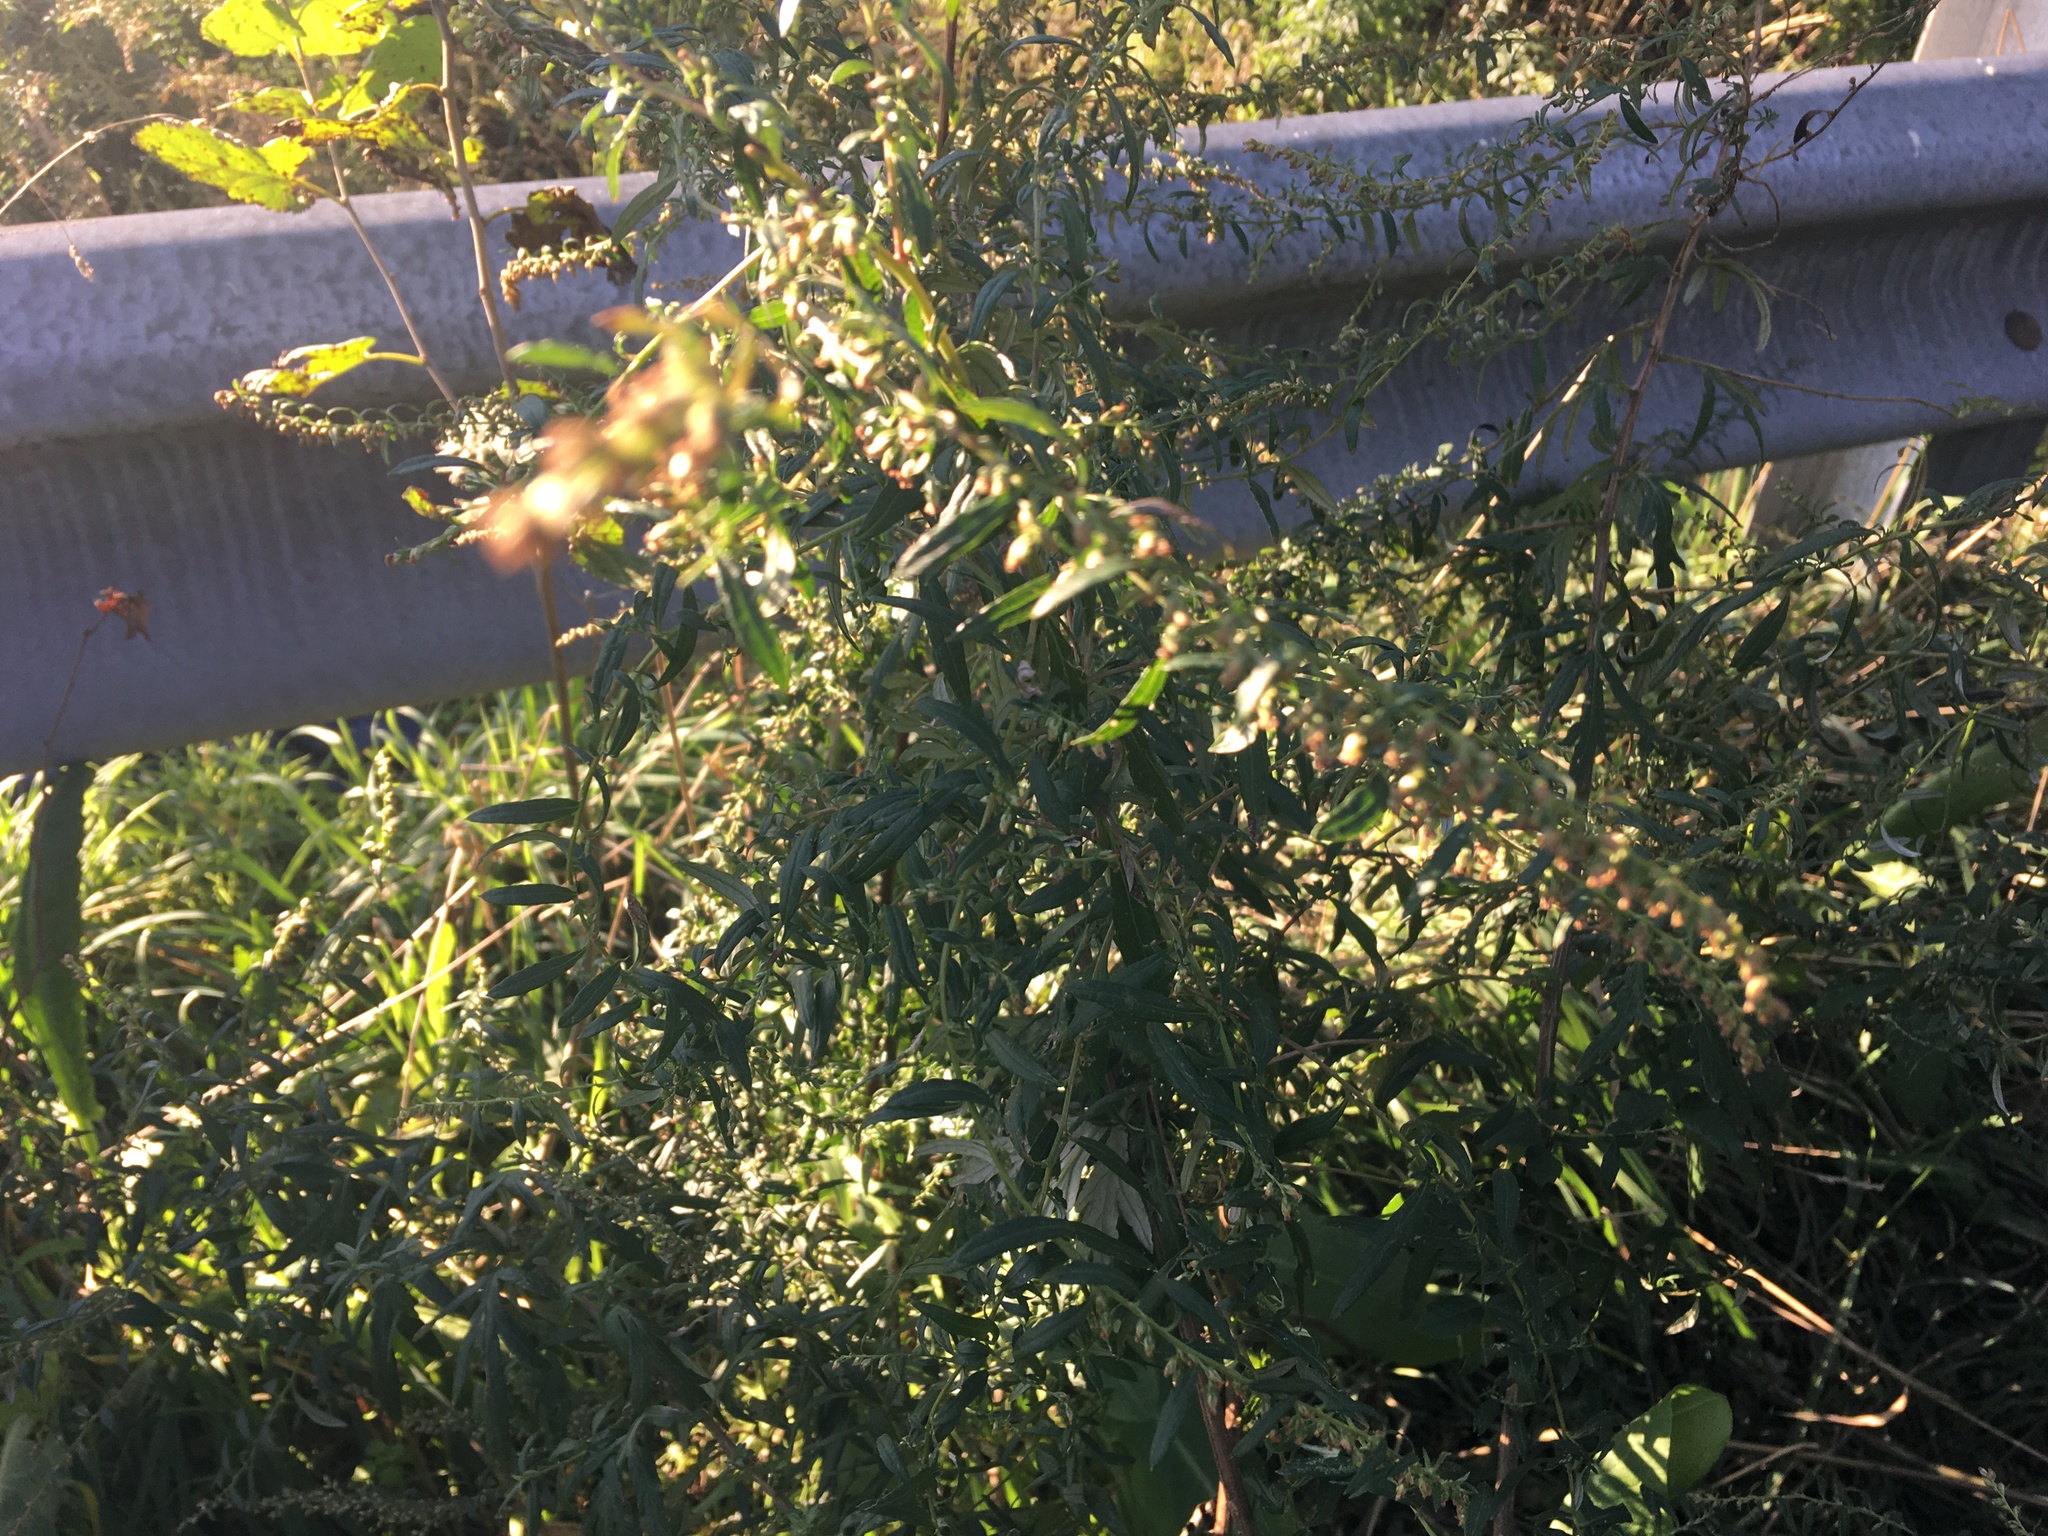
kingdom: Plantae
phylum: Tracheophyta
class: Magnoliopsida
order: Asterales
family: Asteraceae
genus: Artemisia
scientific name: Artemisia vulgaris
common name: Mugwort
